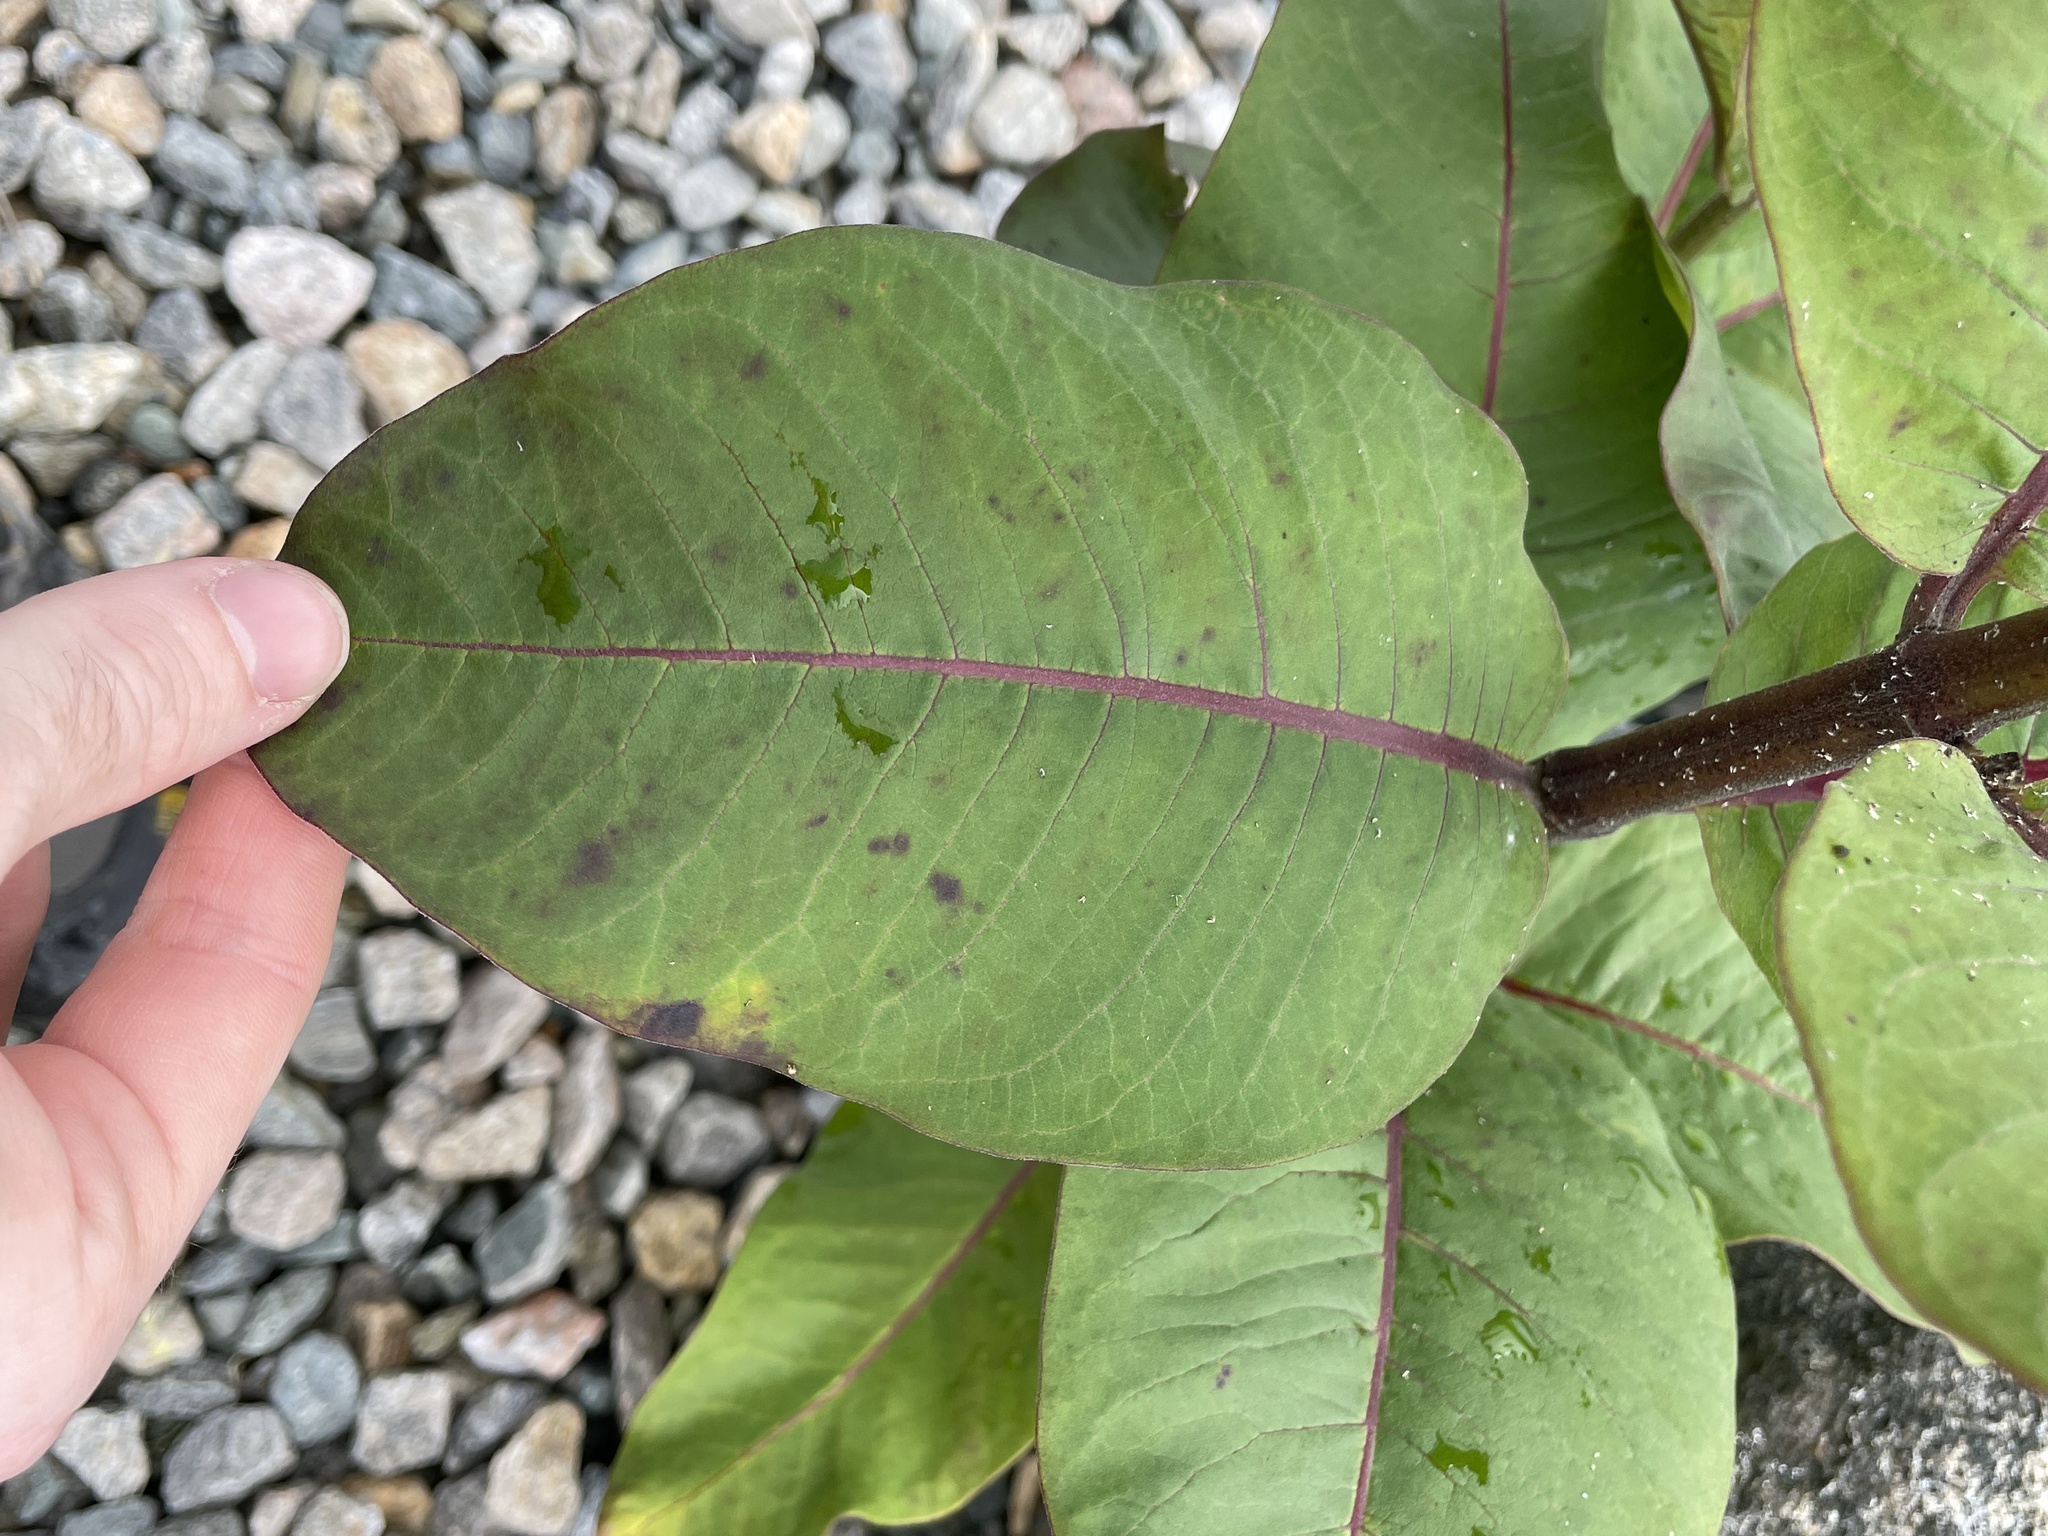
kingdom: Plantae
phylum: Tracheophyta
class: Magnoliopsida
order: Gentianales
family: Apocynaceae
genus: Asclepias
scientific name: Asclepias syriaca
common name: Common milkweed
